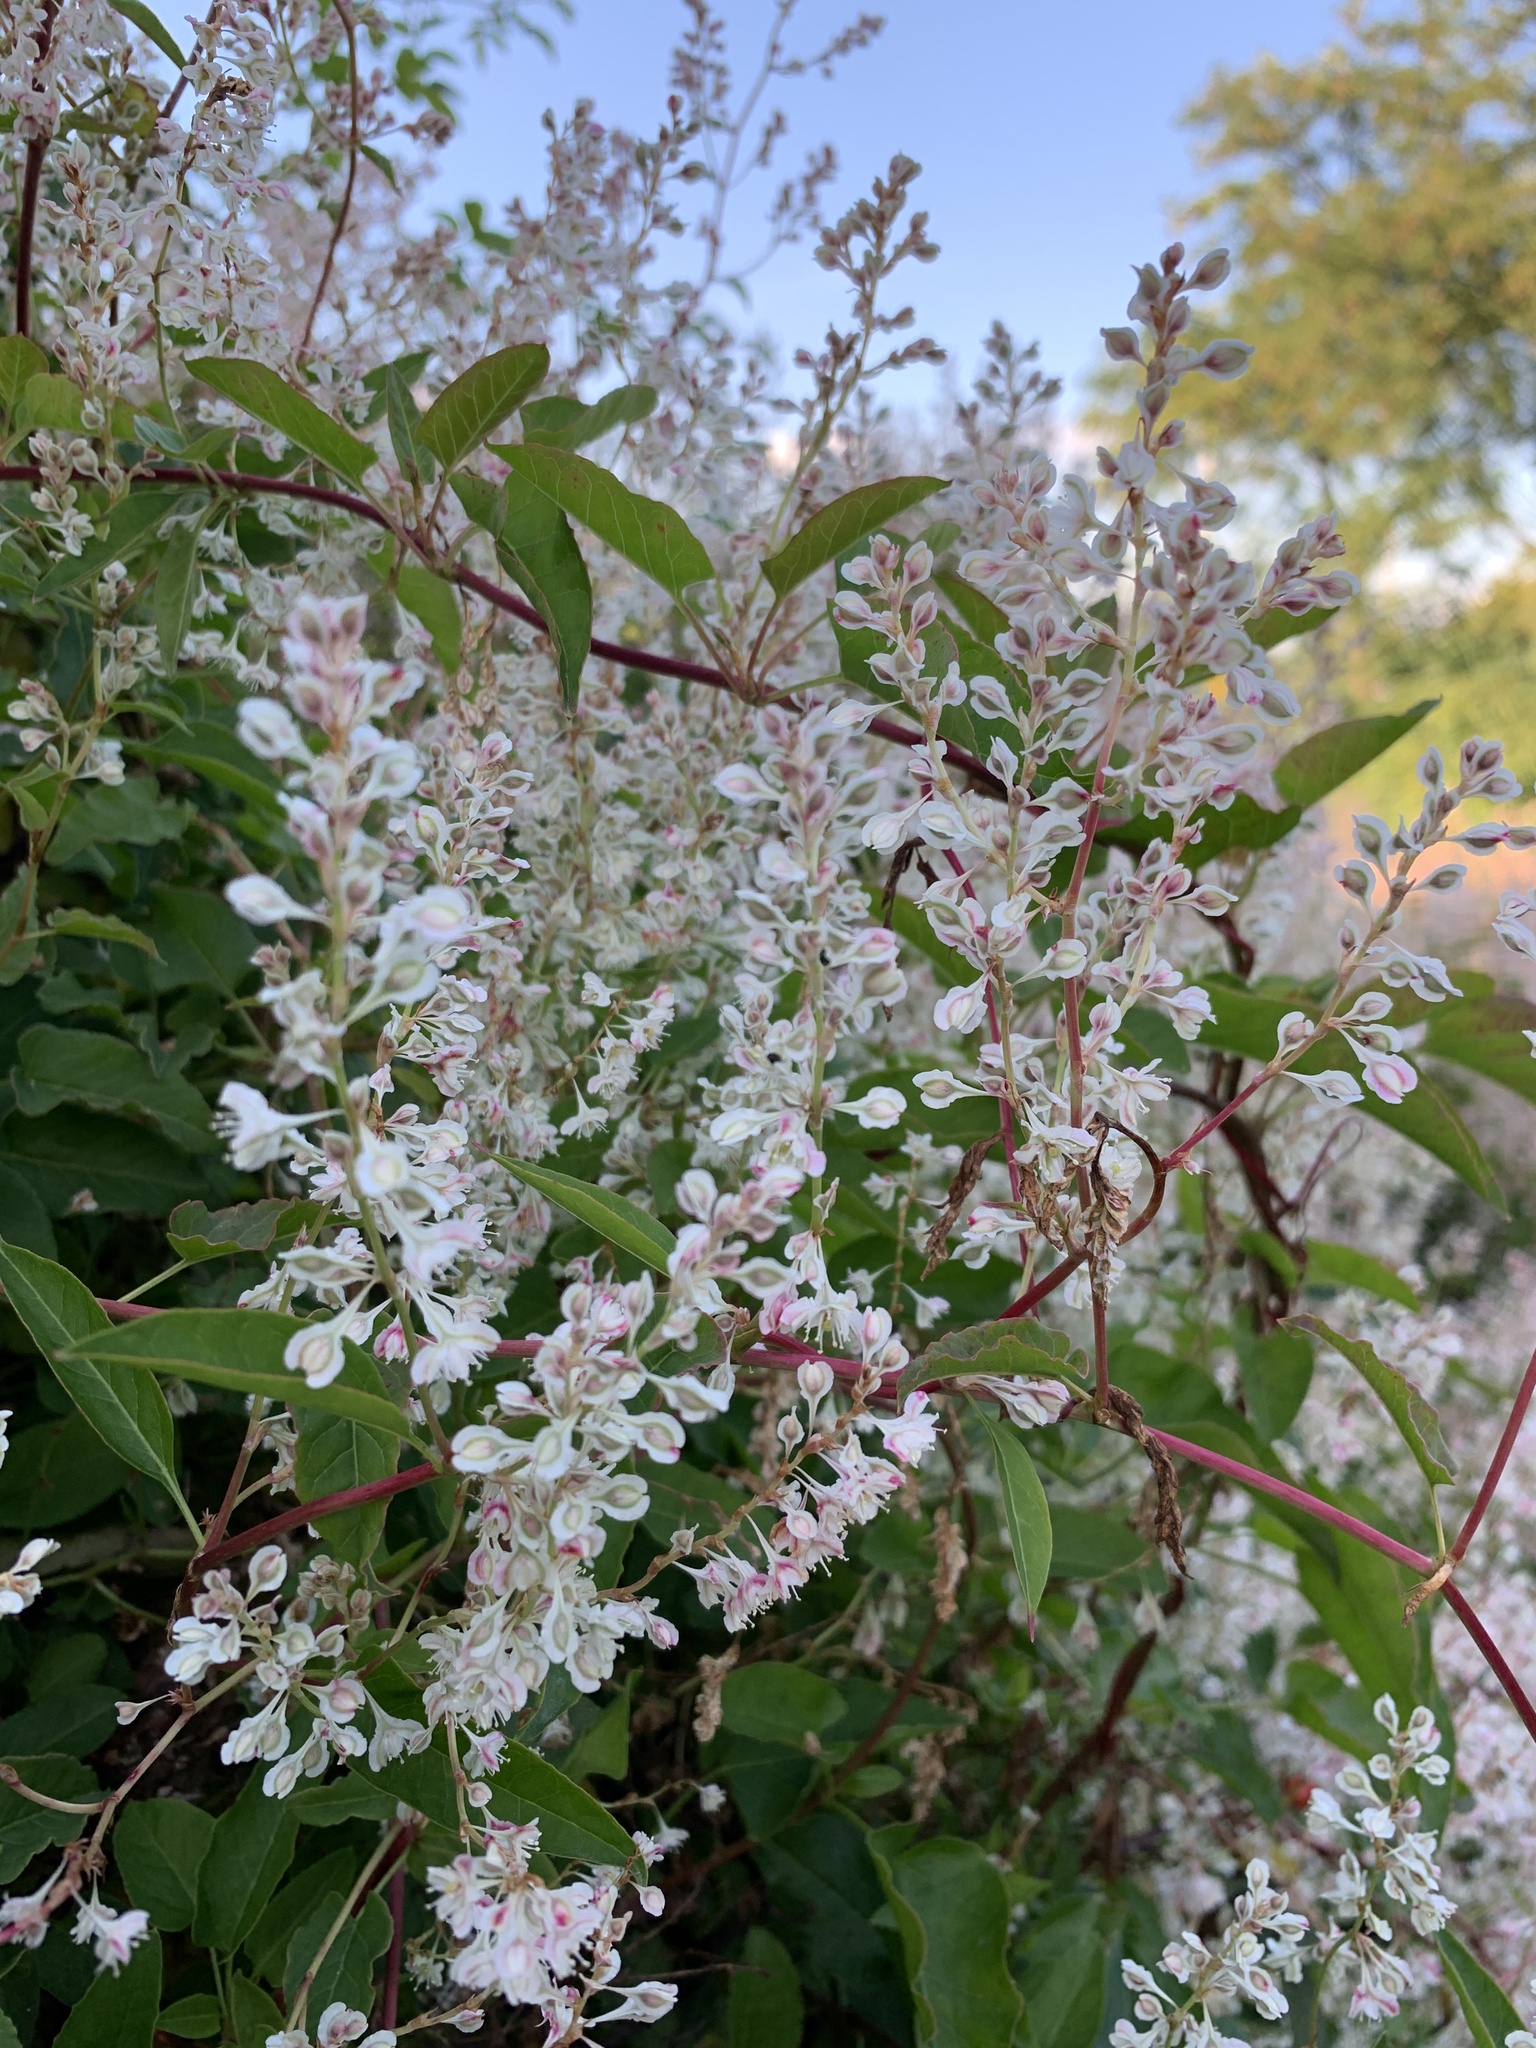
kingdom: Plantae
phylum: Tracheophyta
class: Magnoliopsida
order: Caryophyllales
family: Polygonaceae
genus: Fallopia
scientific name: Fallopia baldschuanica
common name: Russian-vine
